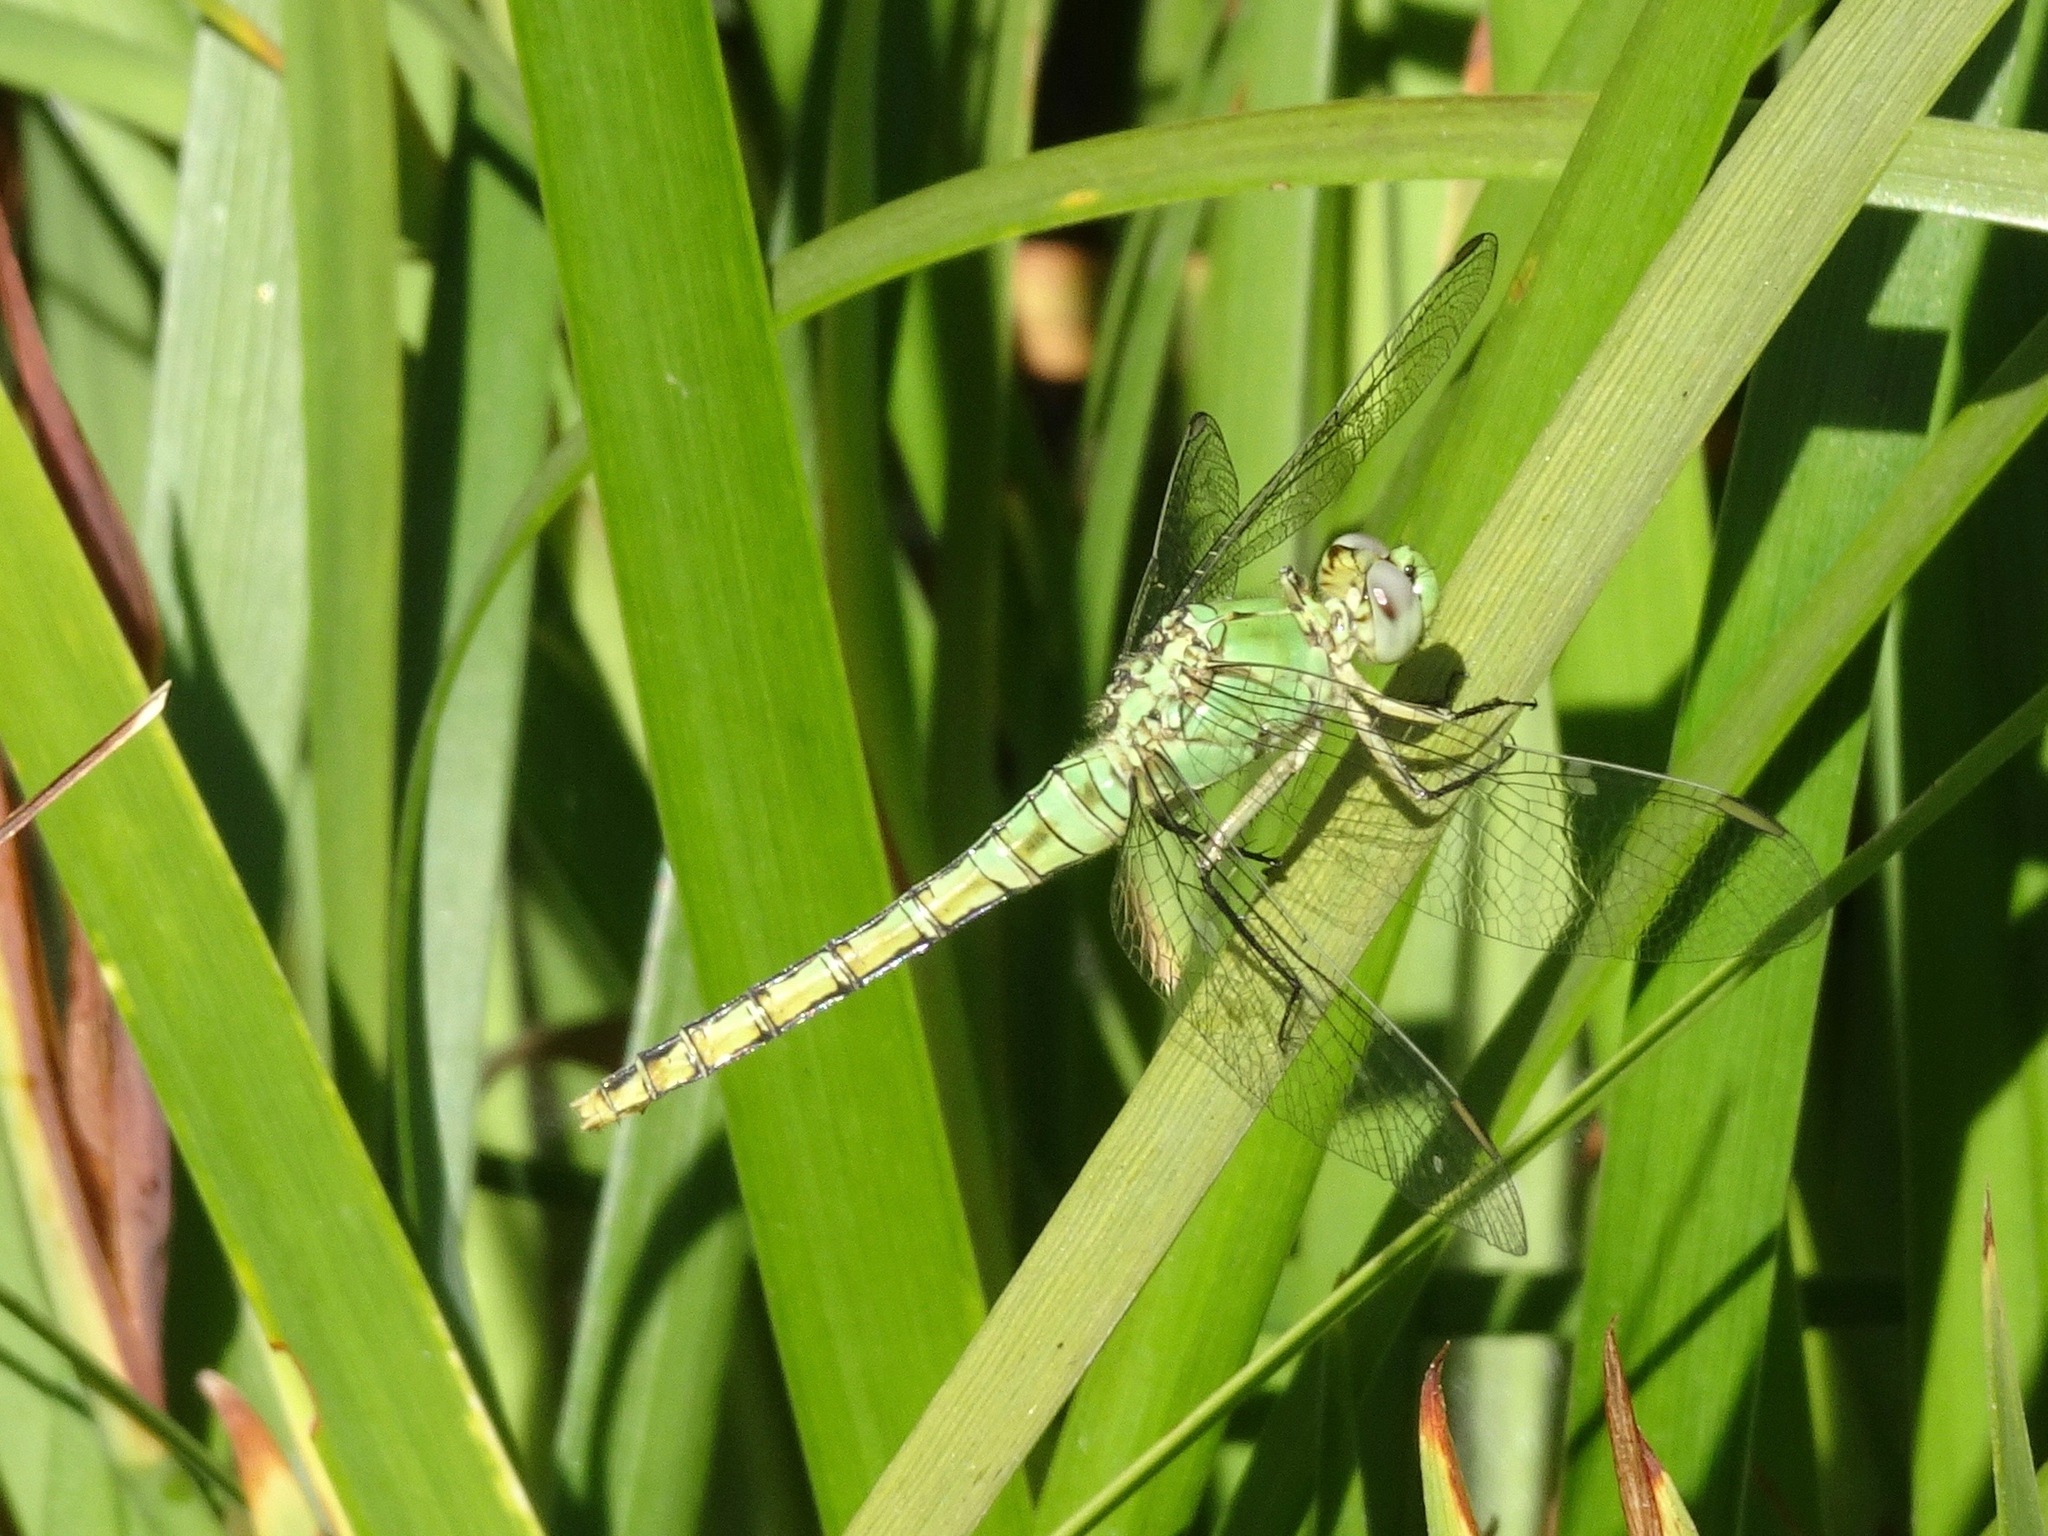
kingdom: Animalia
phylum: Arthropoda
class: Insecta
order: Odonata
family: Libellulidae
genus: Erythemis
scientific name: Erythemis collocata
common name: Western pondhawk
